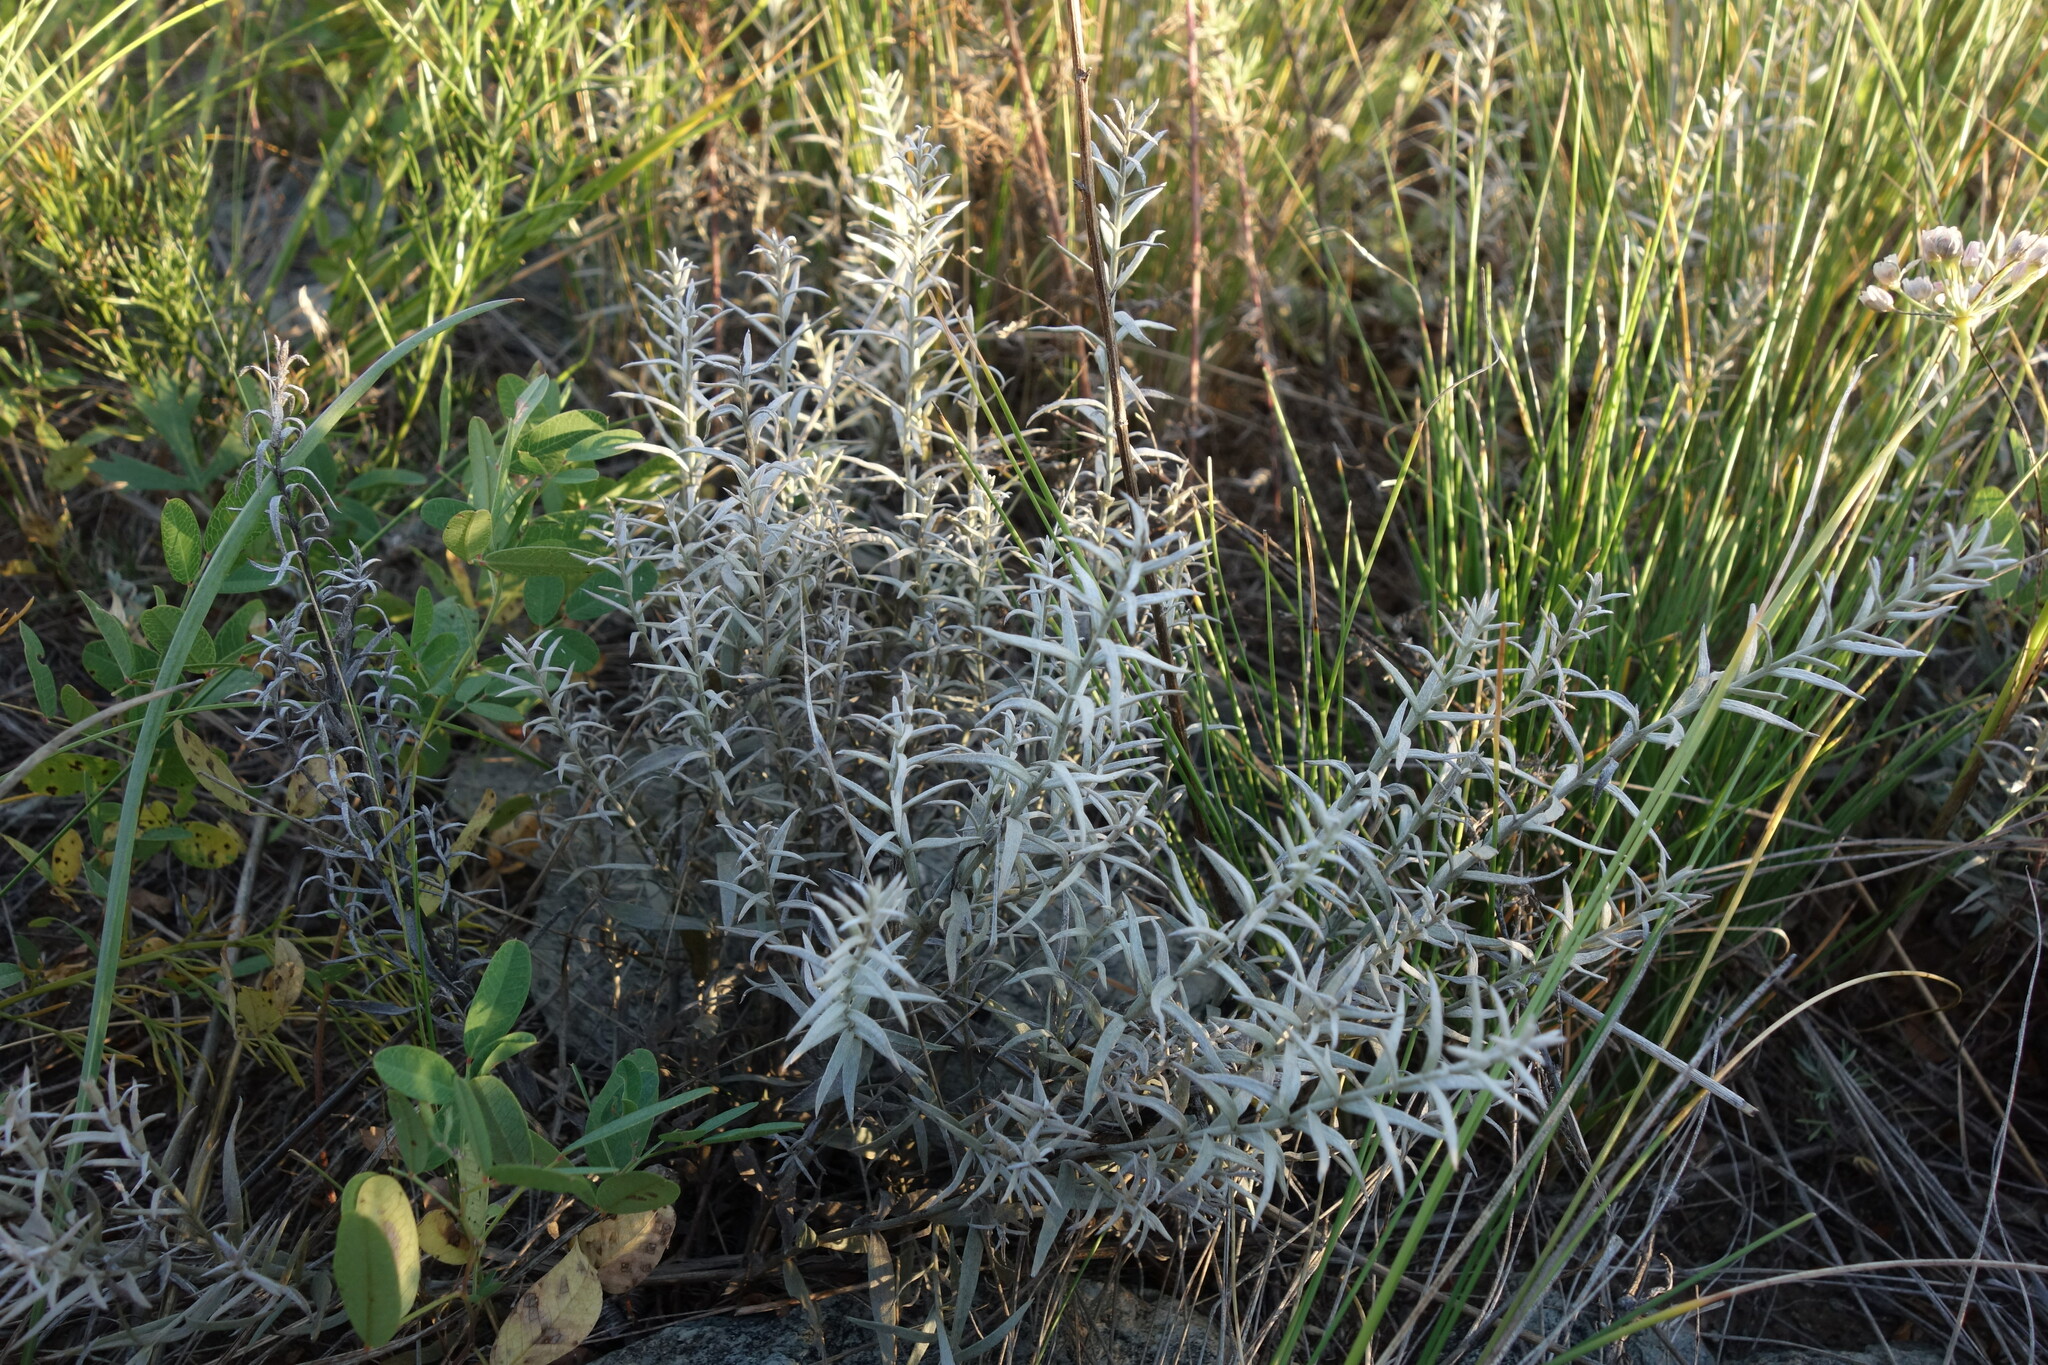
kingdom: Plantae
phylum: Tracheophyta
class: Magnoliopsida
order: Lamiales
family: Orobanchaceae
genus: Cymbaria
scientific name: Cymbaria daurica
